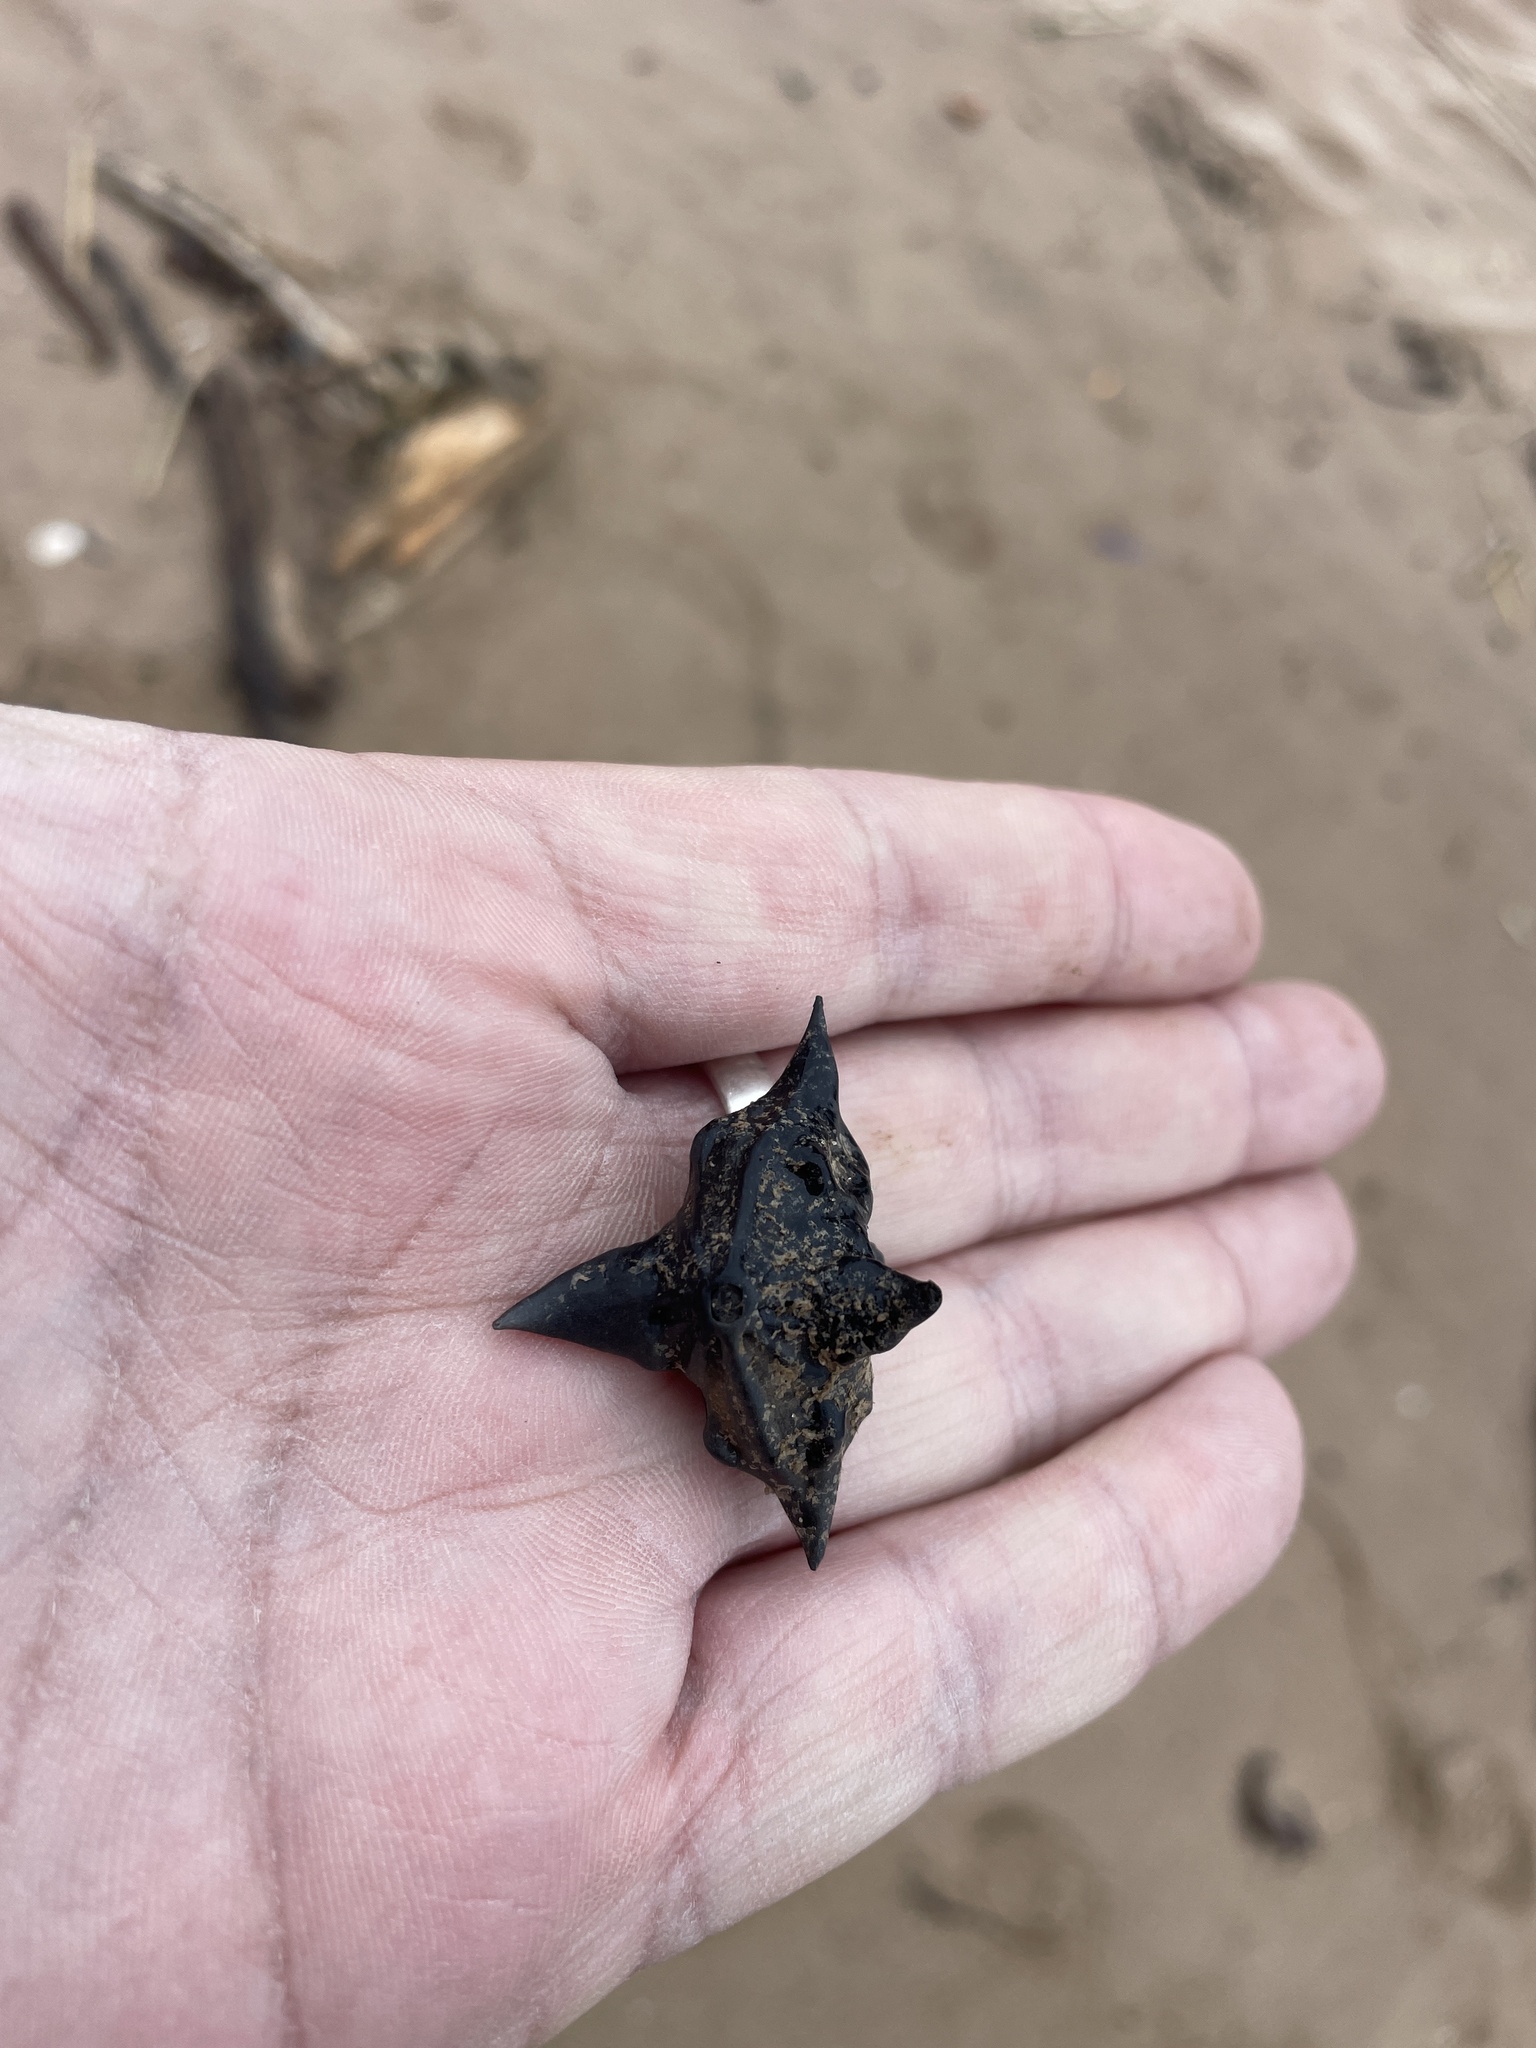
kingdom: Plantae
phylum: Tracheophyta
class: Magnoliopsida
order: Myrtales
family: Lythraceae
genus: Trapa
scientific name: Trapa natans
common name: Water chestnut
